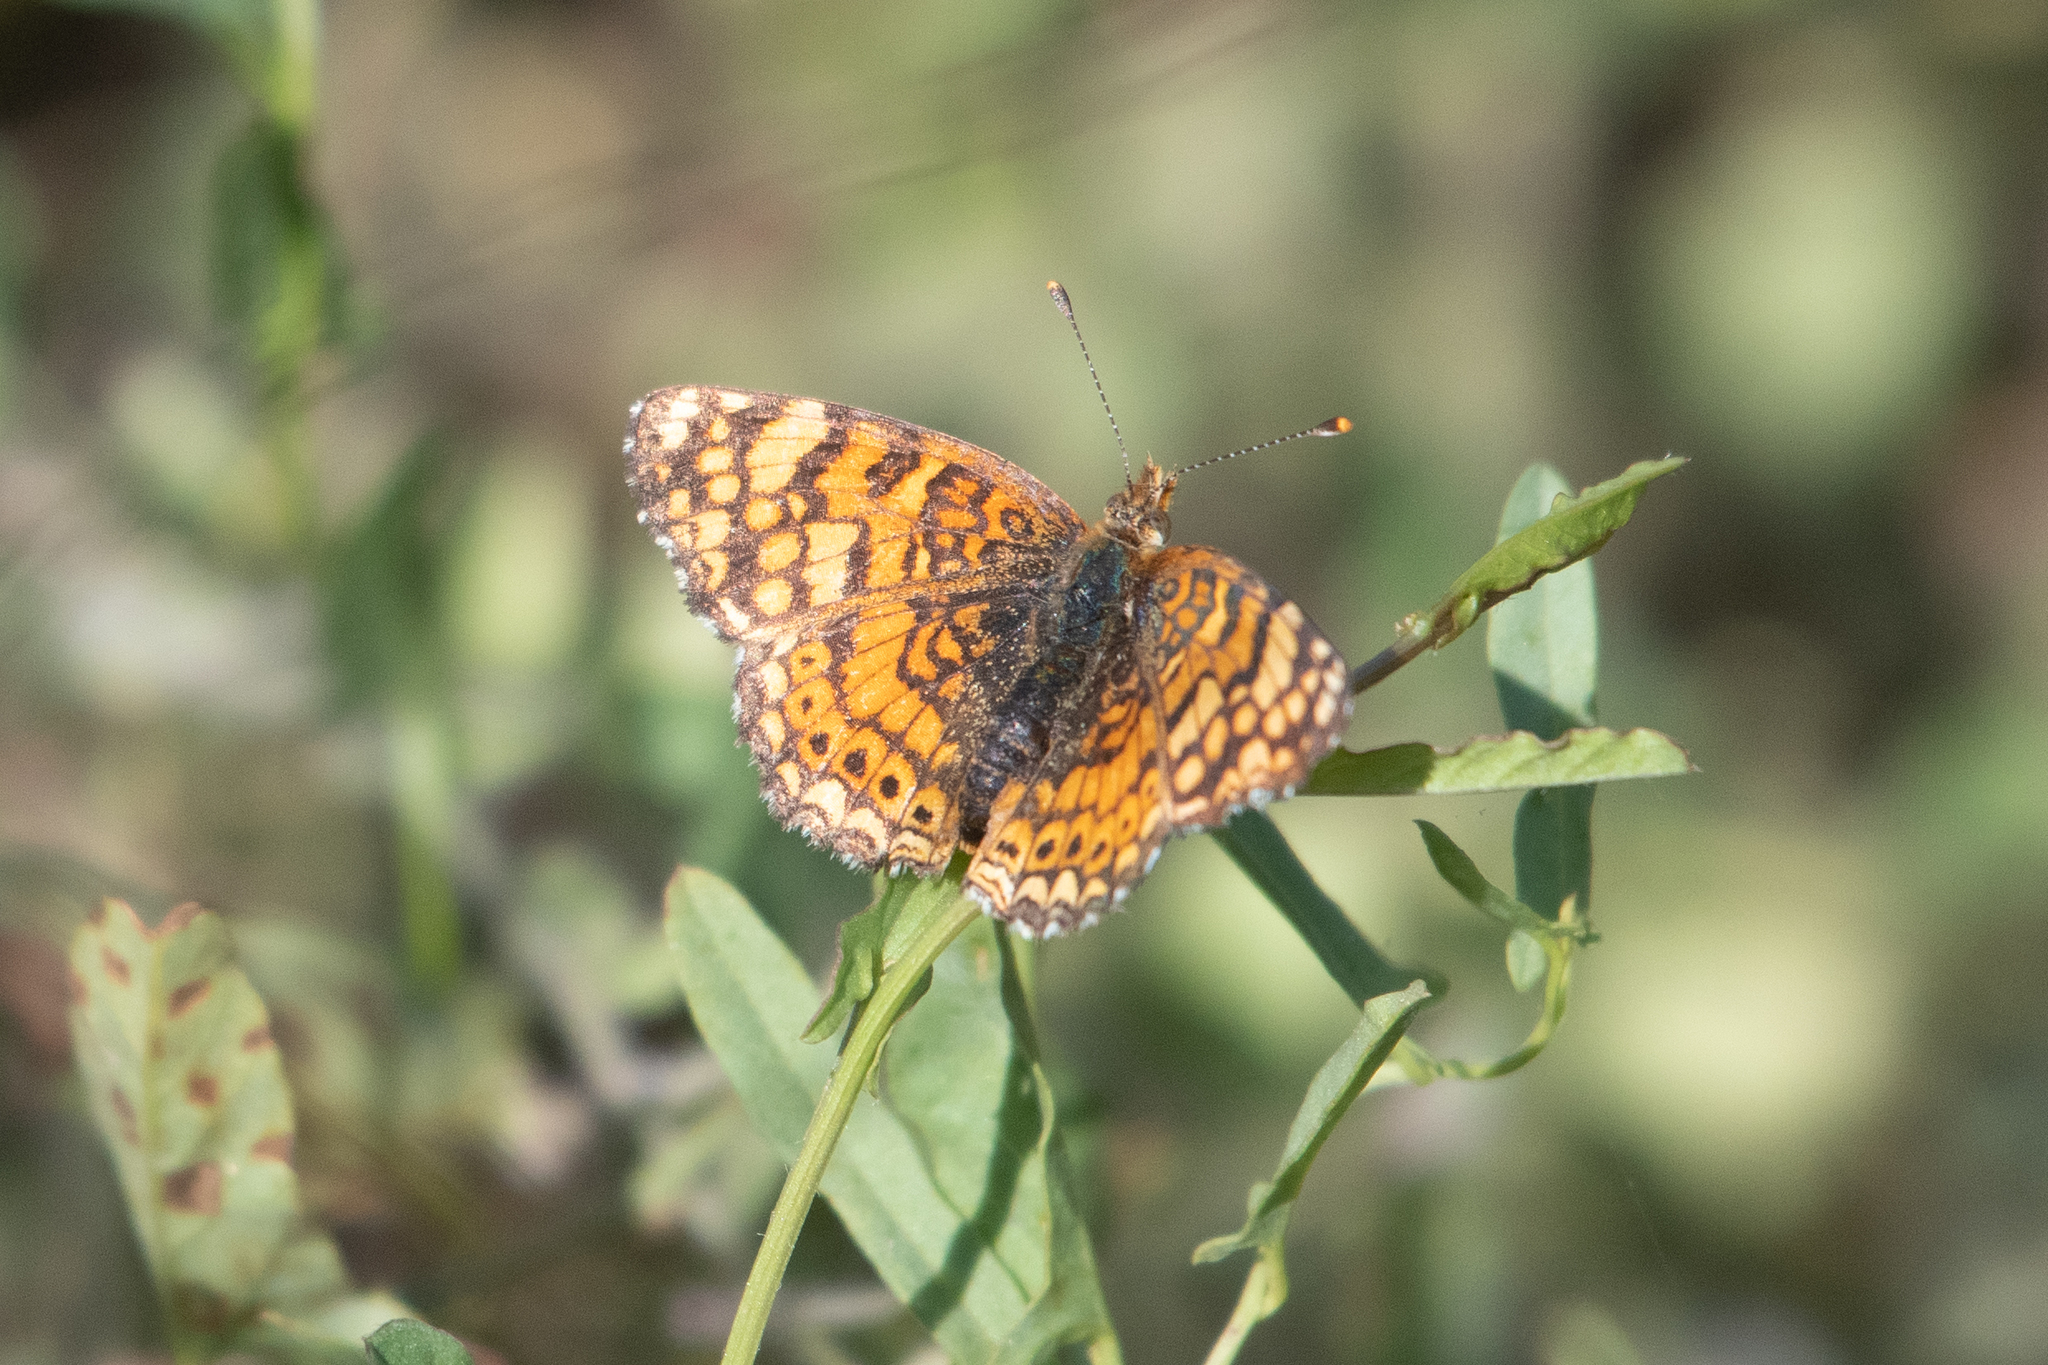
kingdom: Animalia
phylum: Arthropoda
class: Insecta
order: Lepidoptera
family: Nymphalidae
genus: Eresia
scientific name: Eresia aveyrona
